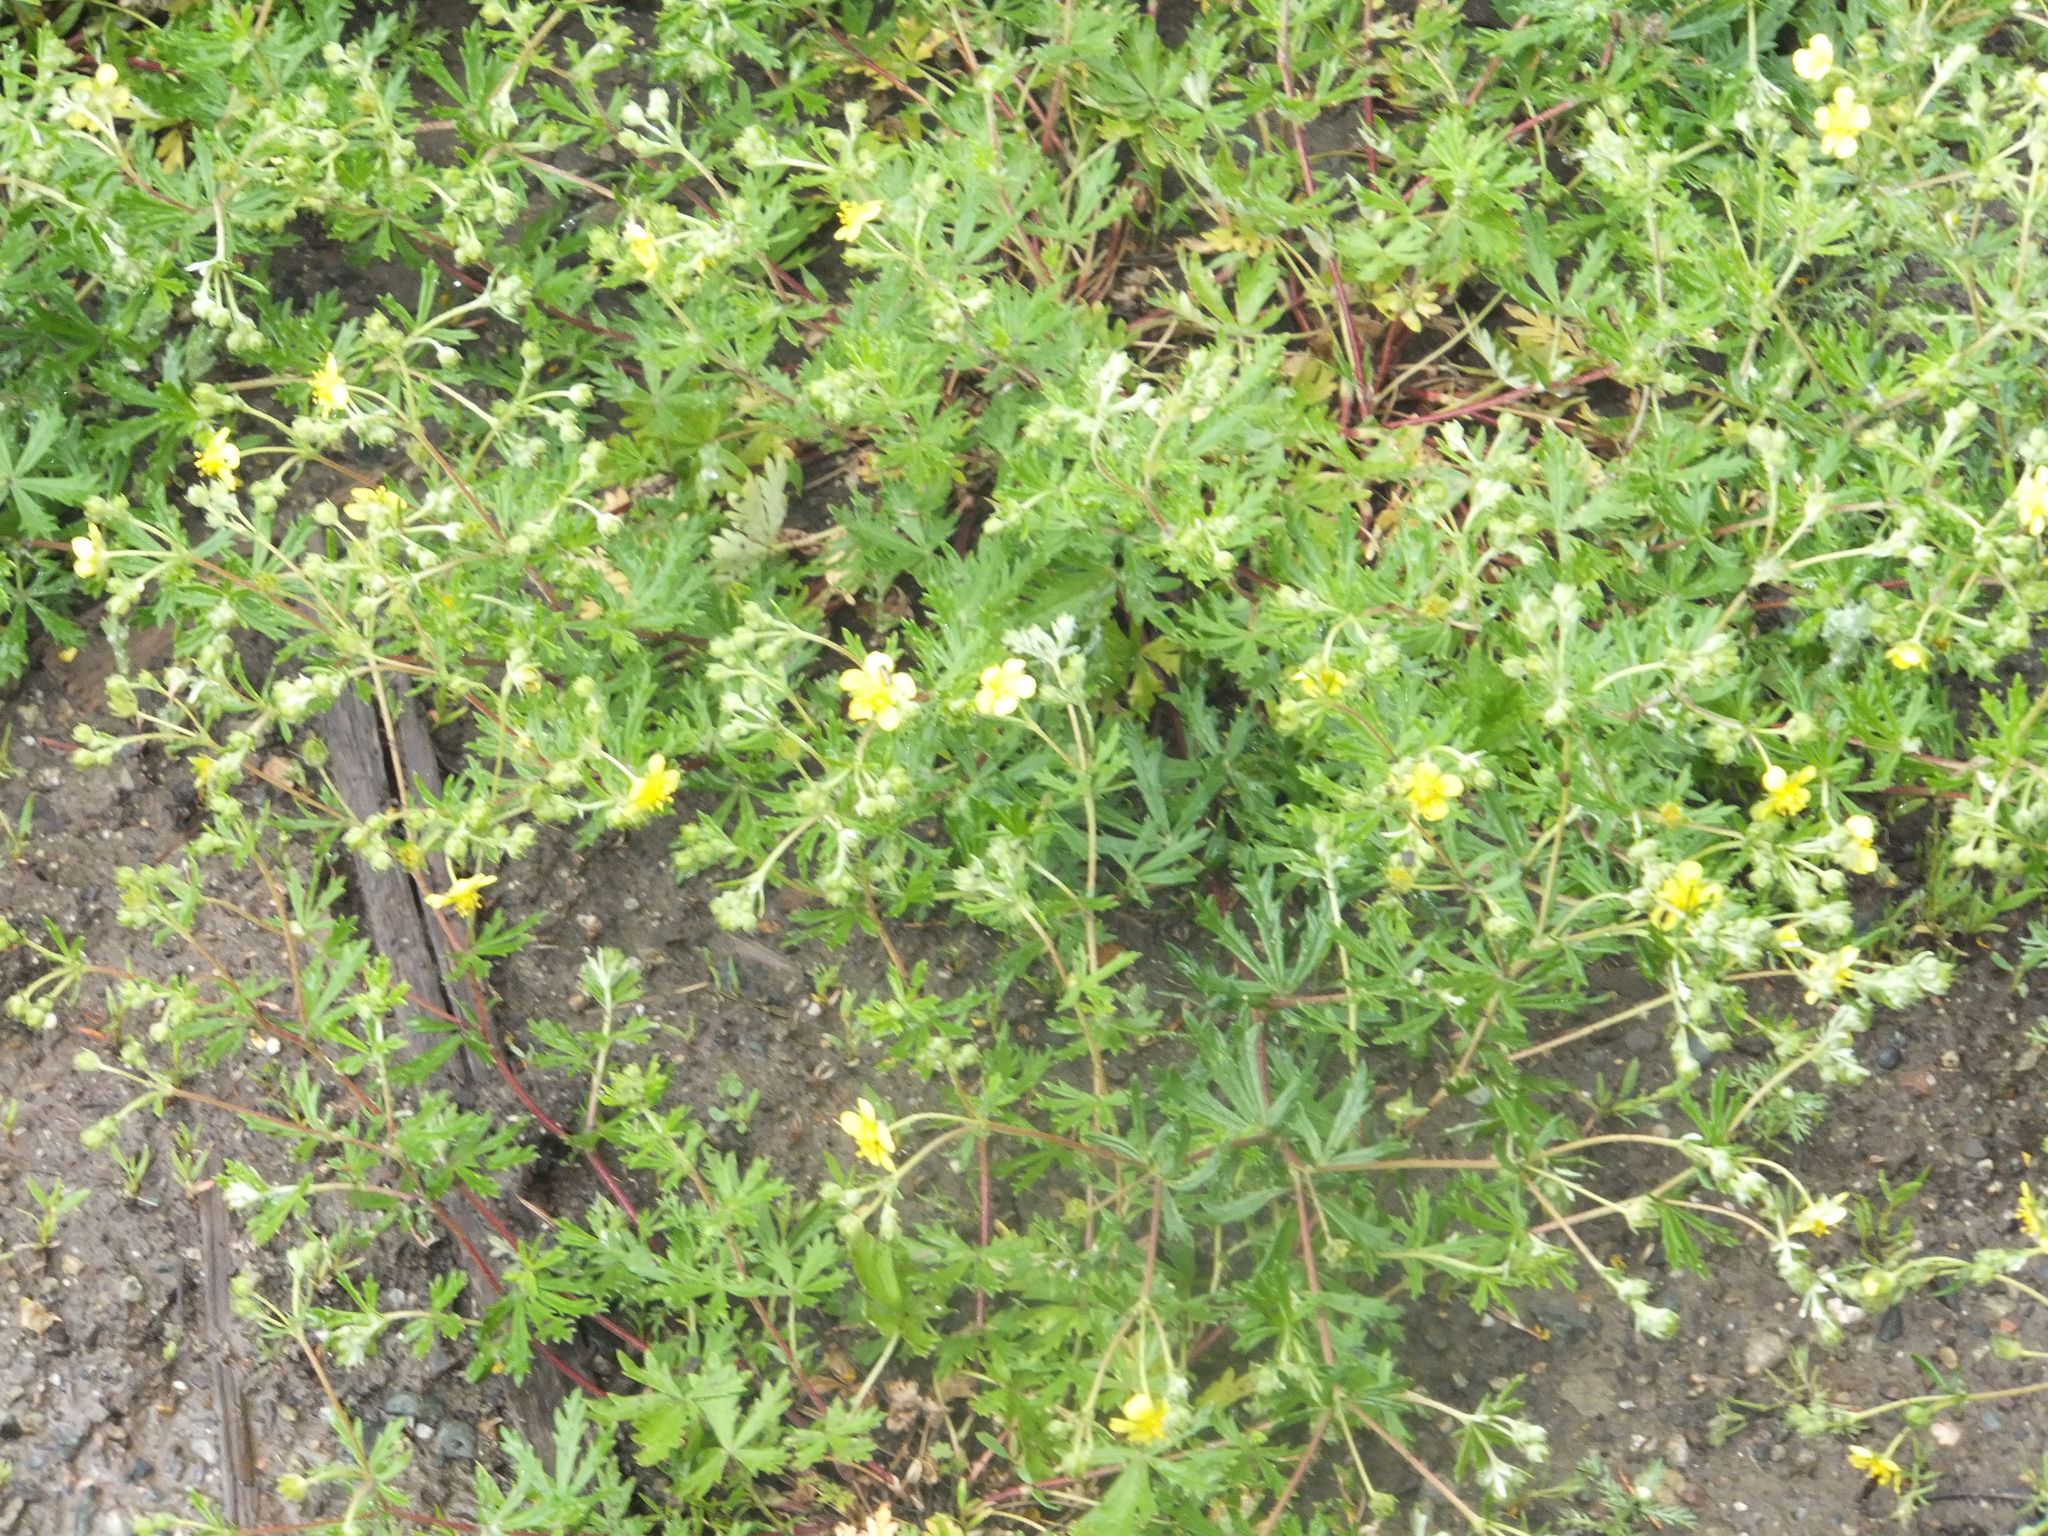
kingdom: Plantae
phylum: Tracheophyta
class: Magnoliopsida
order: Rosales
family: Rosaceae
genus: Potentilla
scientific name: Potentilla argentea
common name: Hoary cinquefoil
